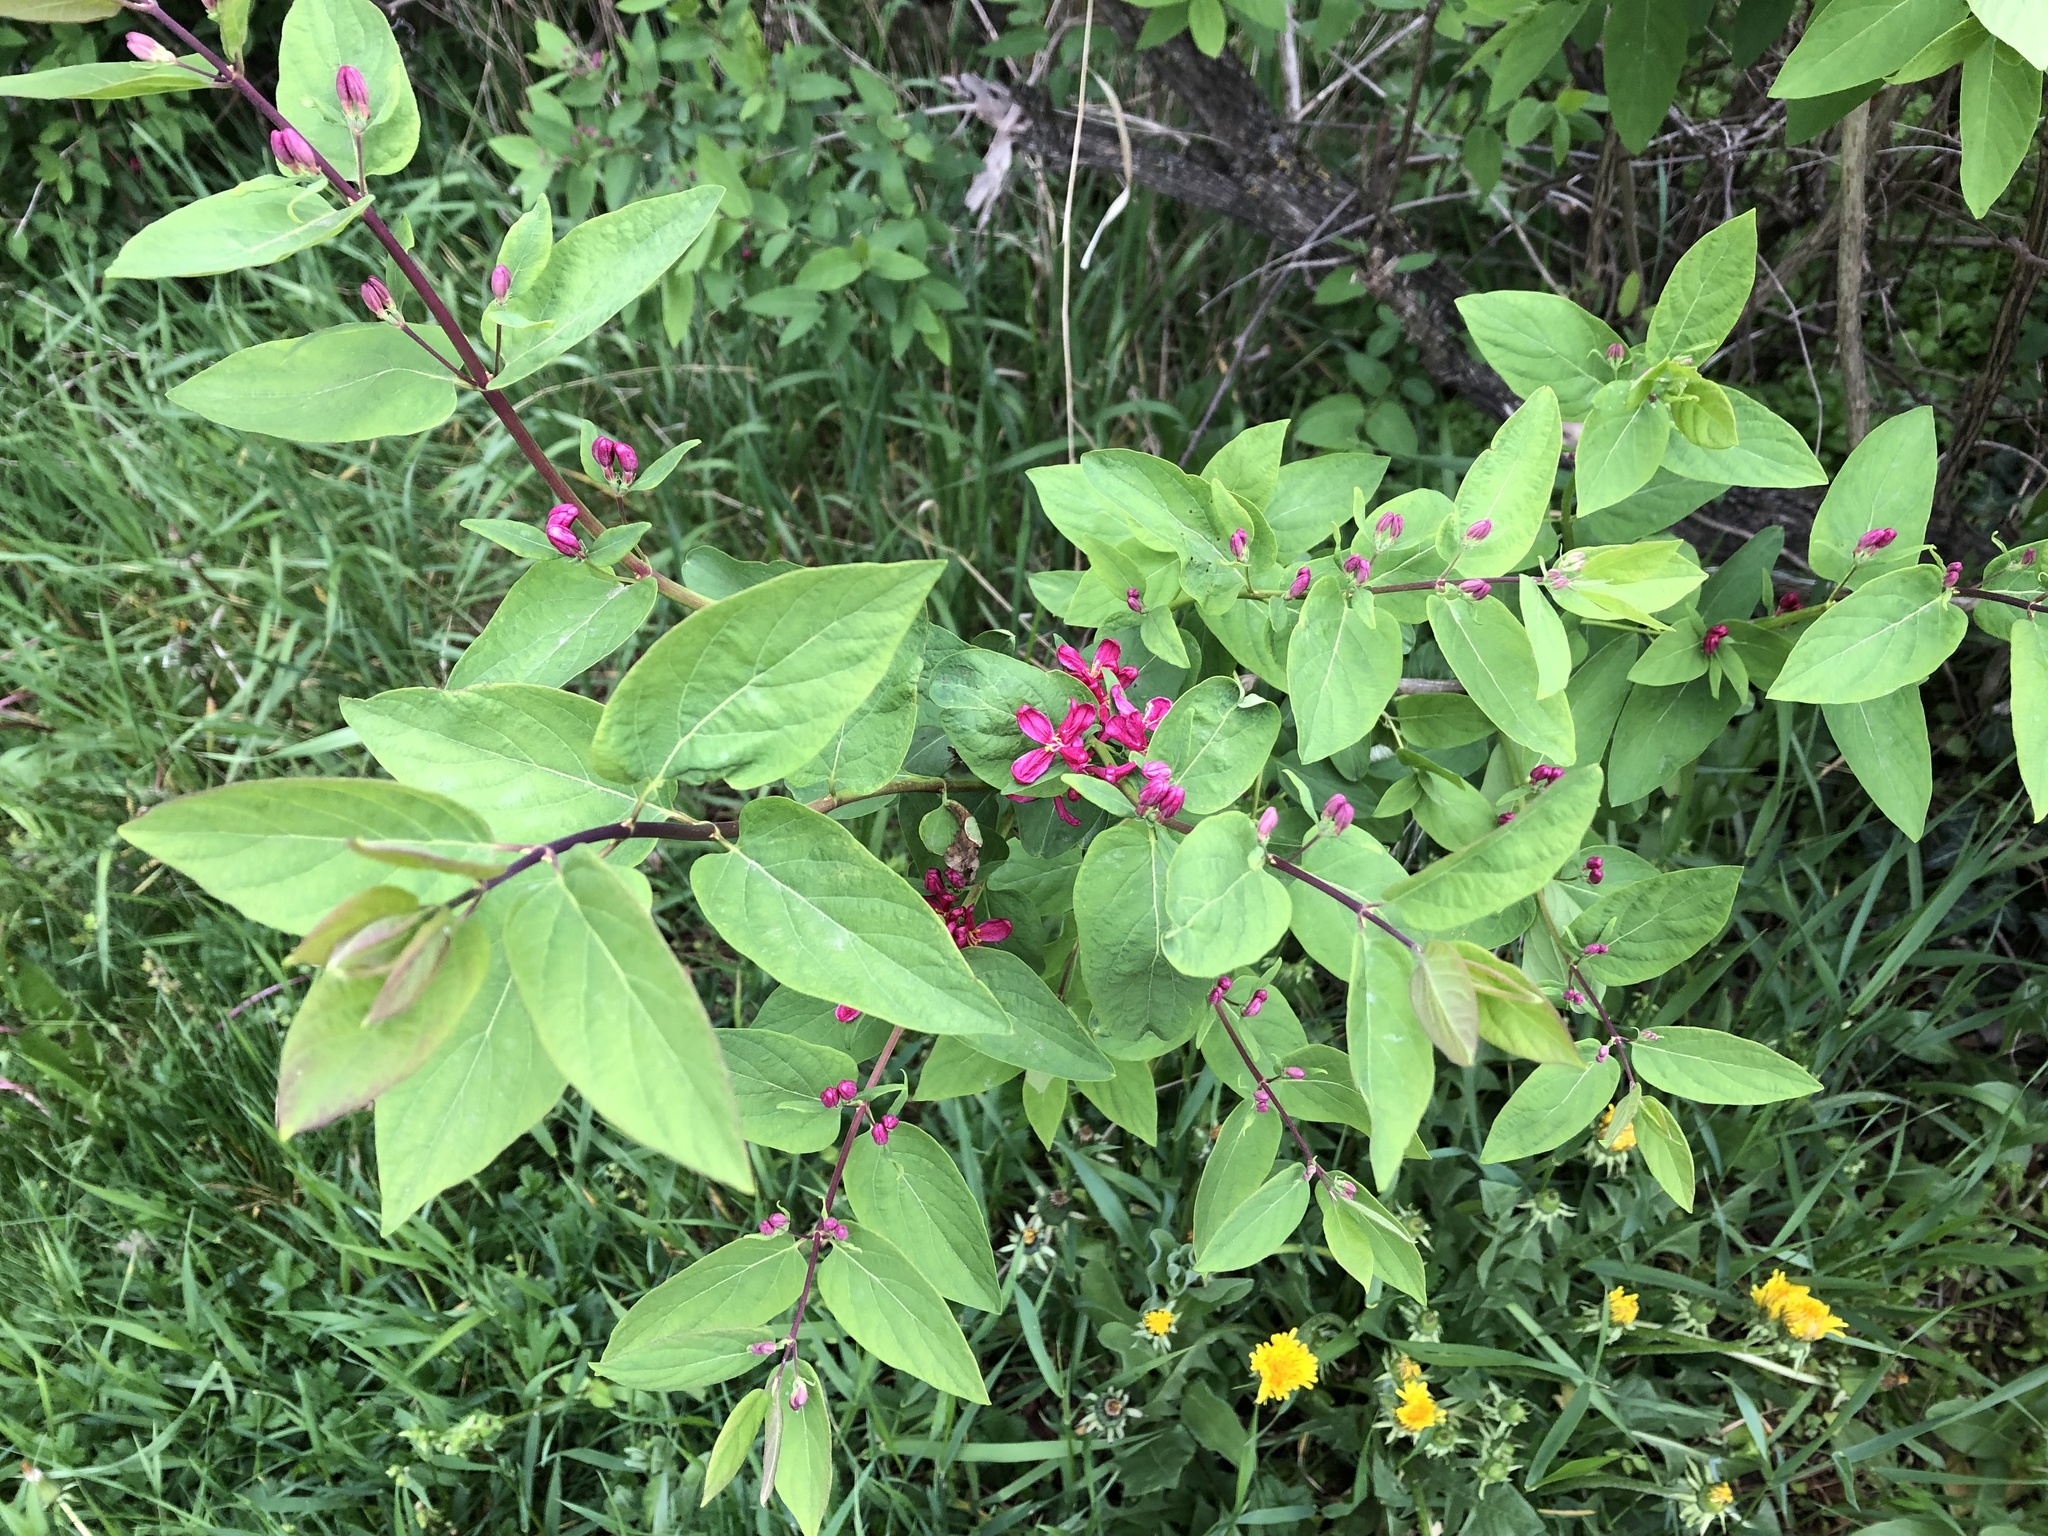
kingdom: Plantae
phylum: Tracheophyta
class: Magnoliopsida
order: Dipsacales
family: Caprifoliaceae
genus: Lonicera
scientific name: Lonicera tatarica
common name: Tatarian honeysuckle
